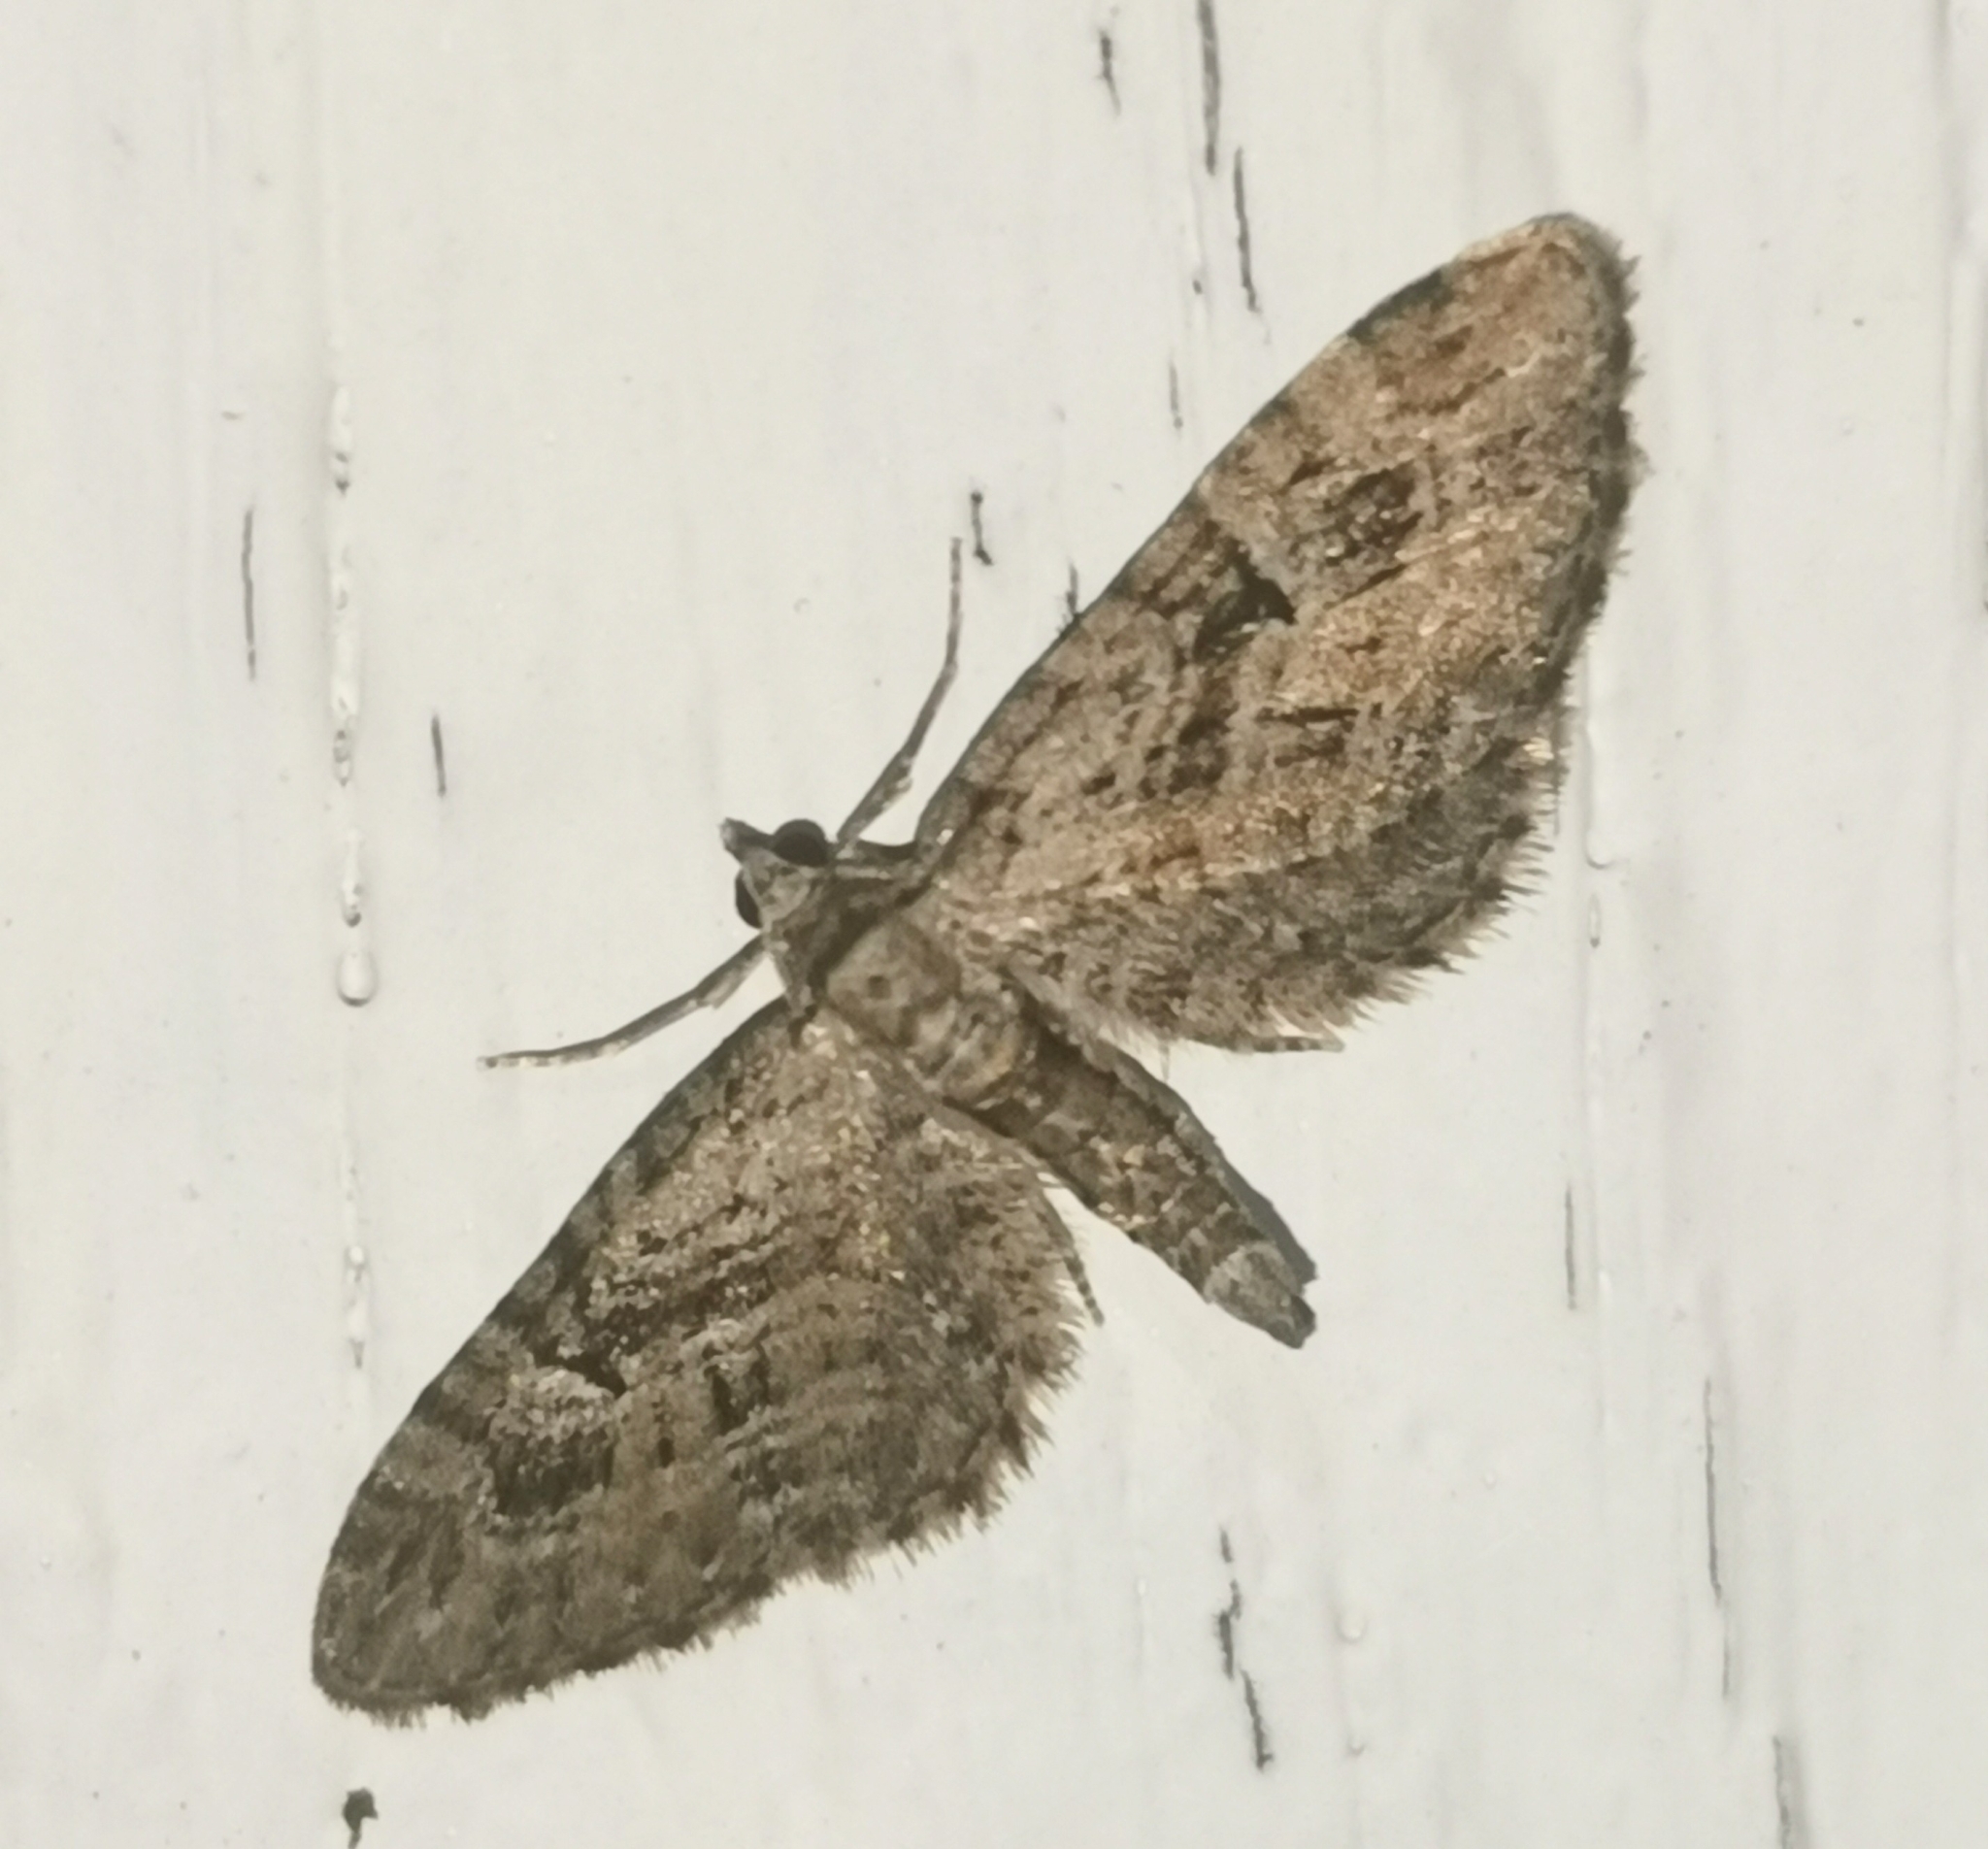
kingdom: Animalia
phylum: Arthropoda
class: Insecta
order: Lepidoptera
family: Geometridae
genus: Eupithecia
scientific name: Eupithecia pusillata
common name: Juniper pug
